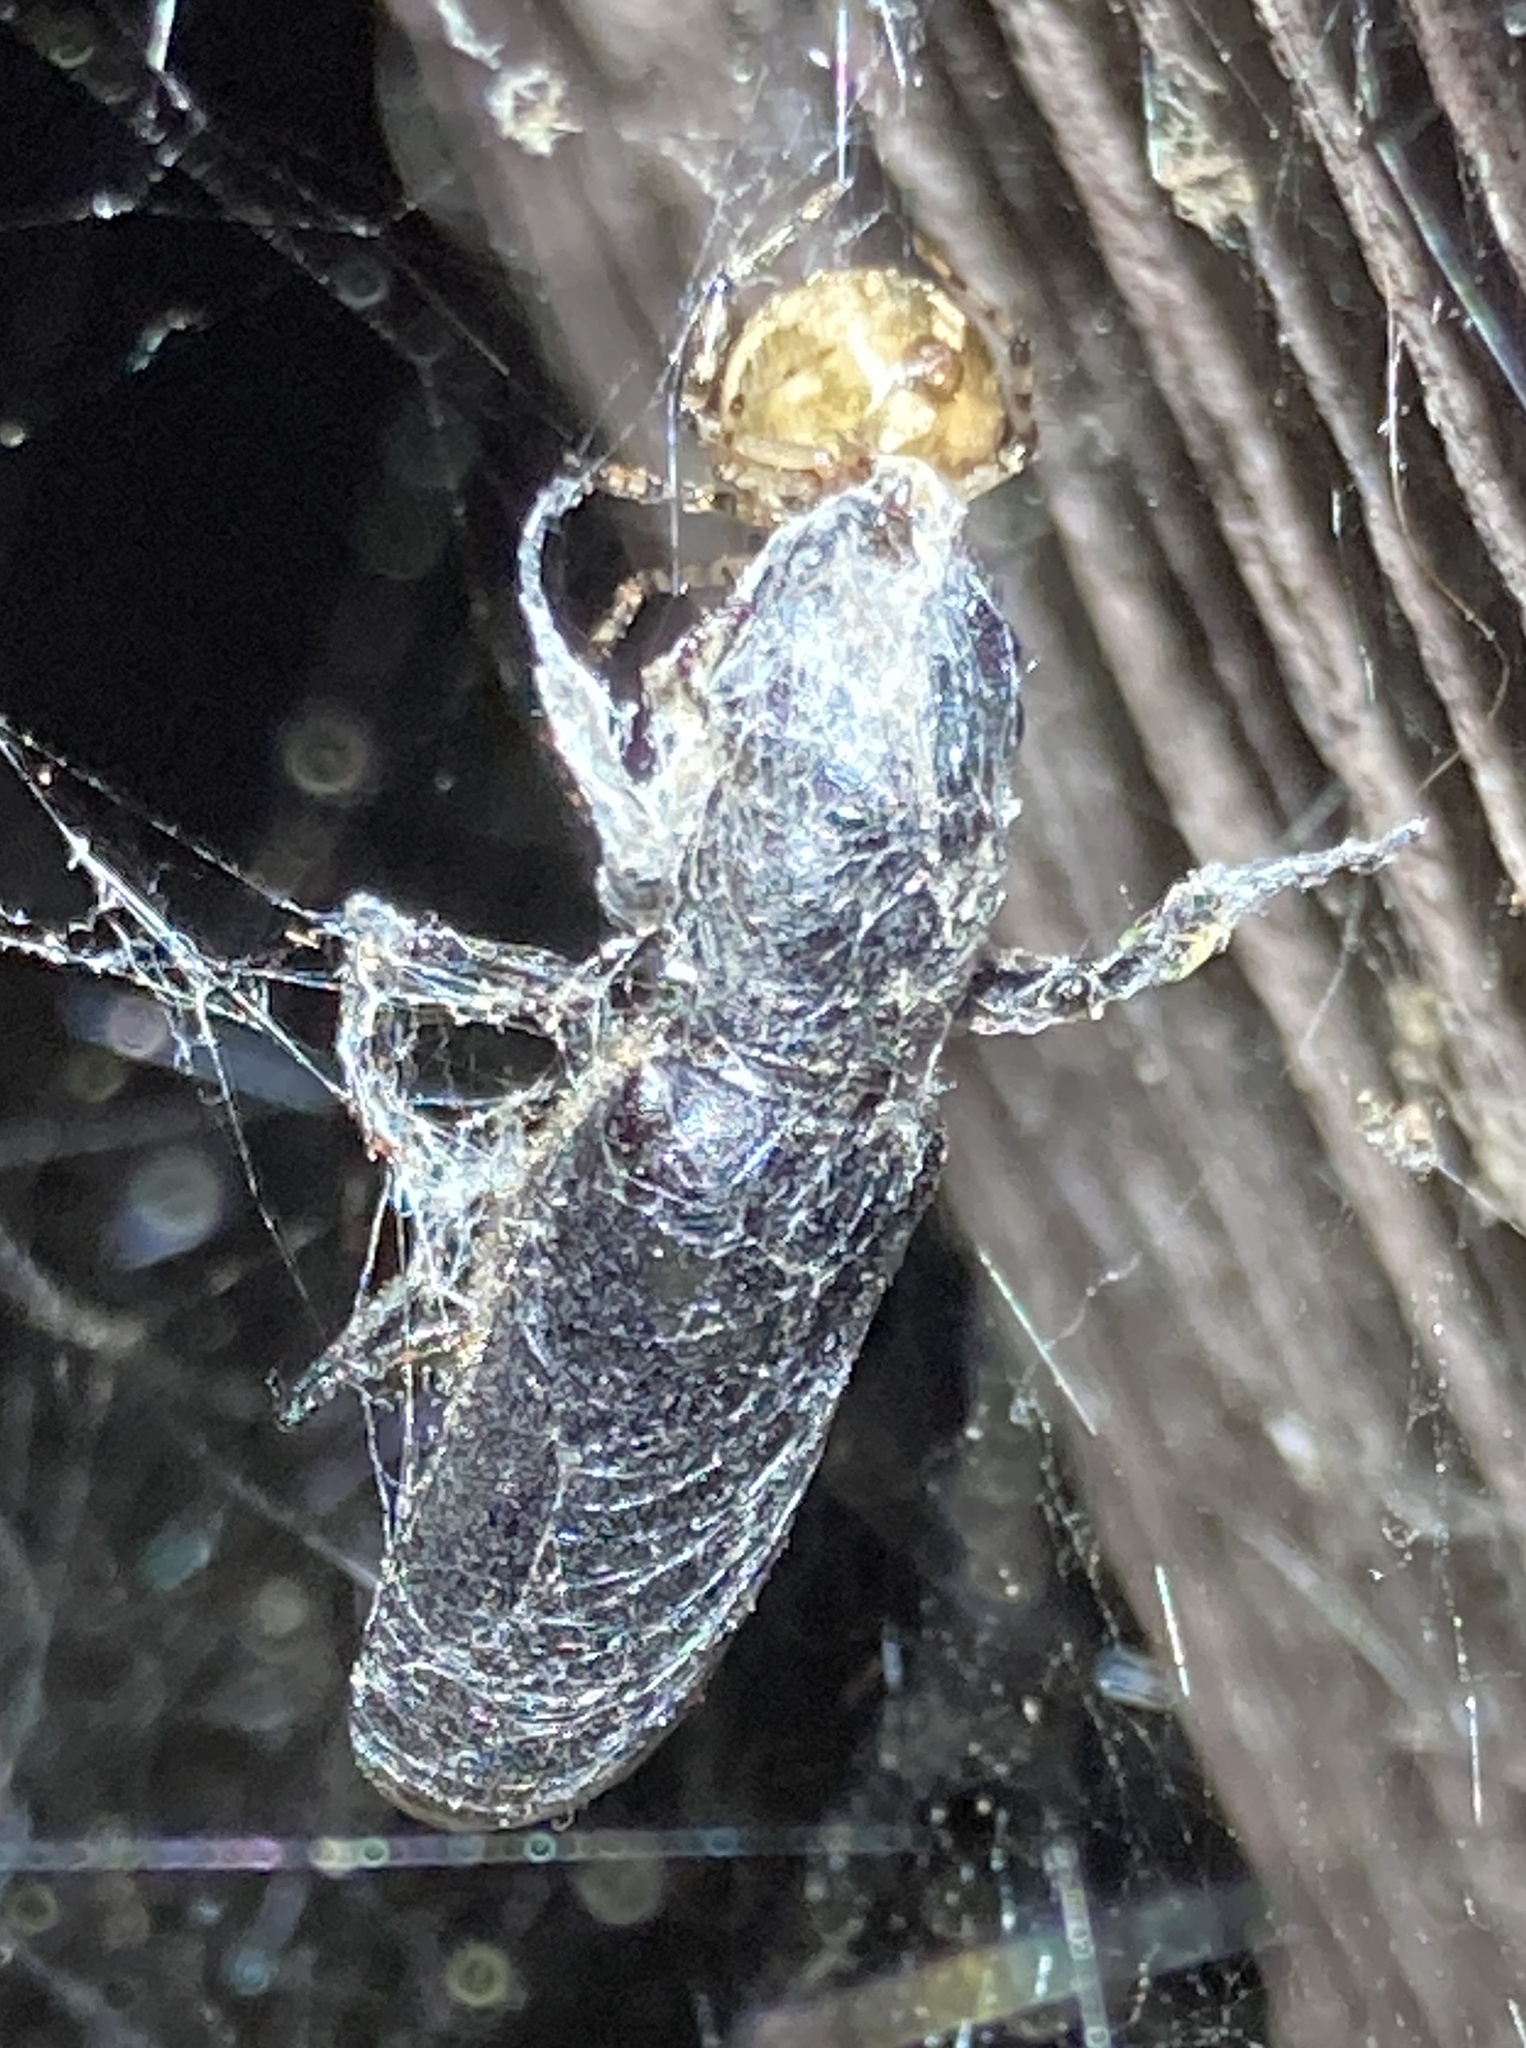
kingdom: Animalia
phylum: Arthropoda
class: Insecta
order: Coleoptera
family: Bostrichidae
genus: Polycaon
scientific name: Polycaon stoutii
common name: Powderpost beetle
